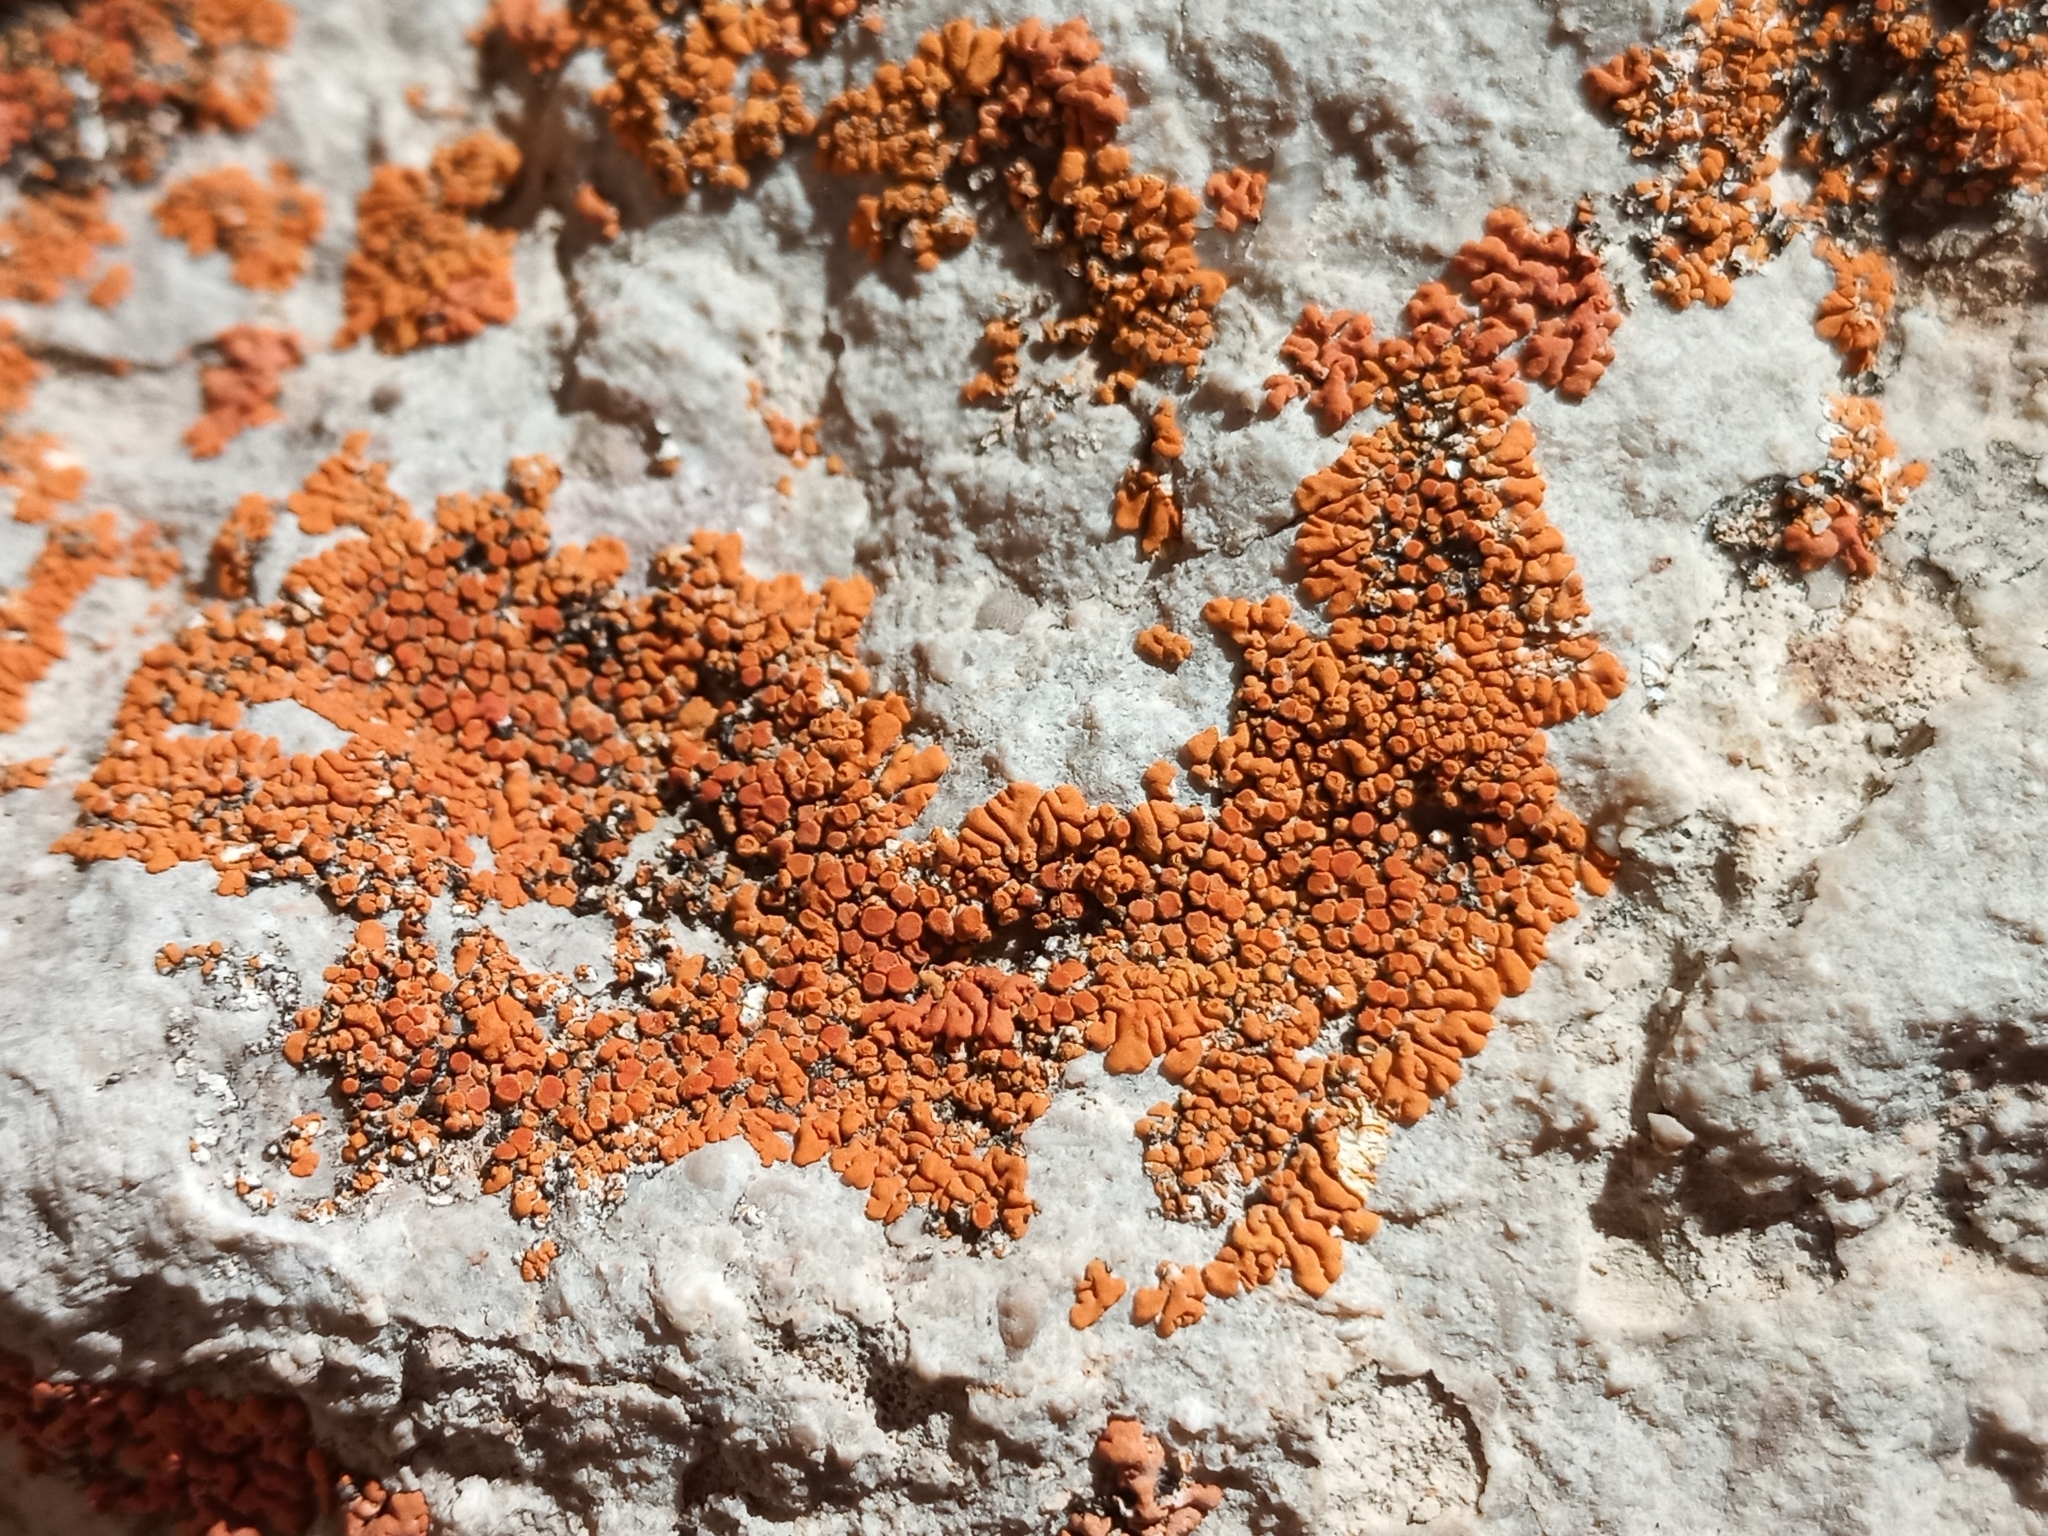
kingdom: Fungi
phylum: Ascomycota
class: Lecanoromycetes
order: Teloschistales
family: Teloschistaceae
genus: Xanthoria
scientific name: Xanthoria elegans
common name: Elegant sunburst lichen
